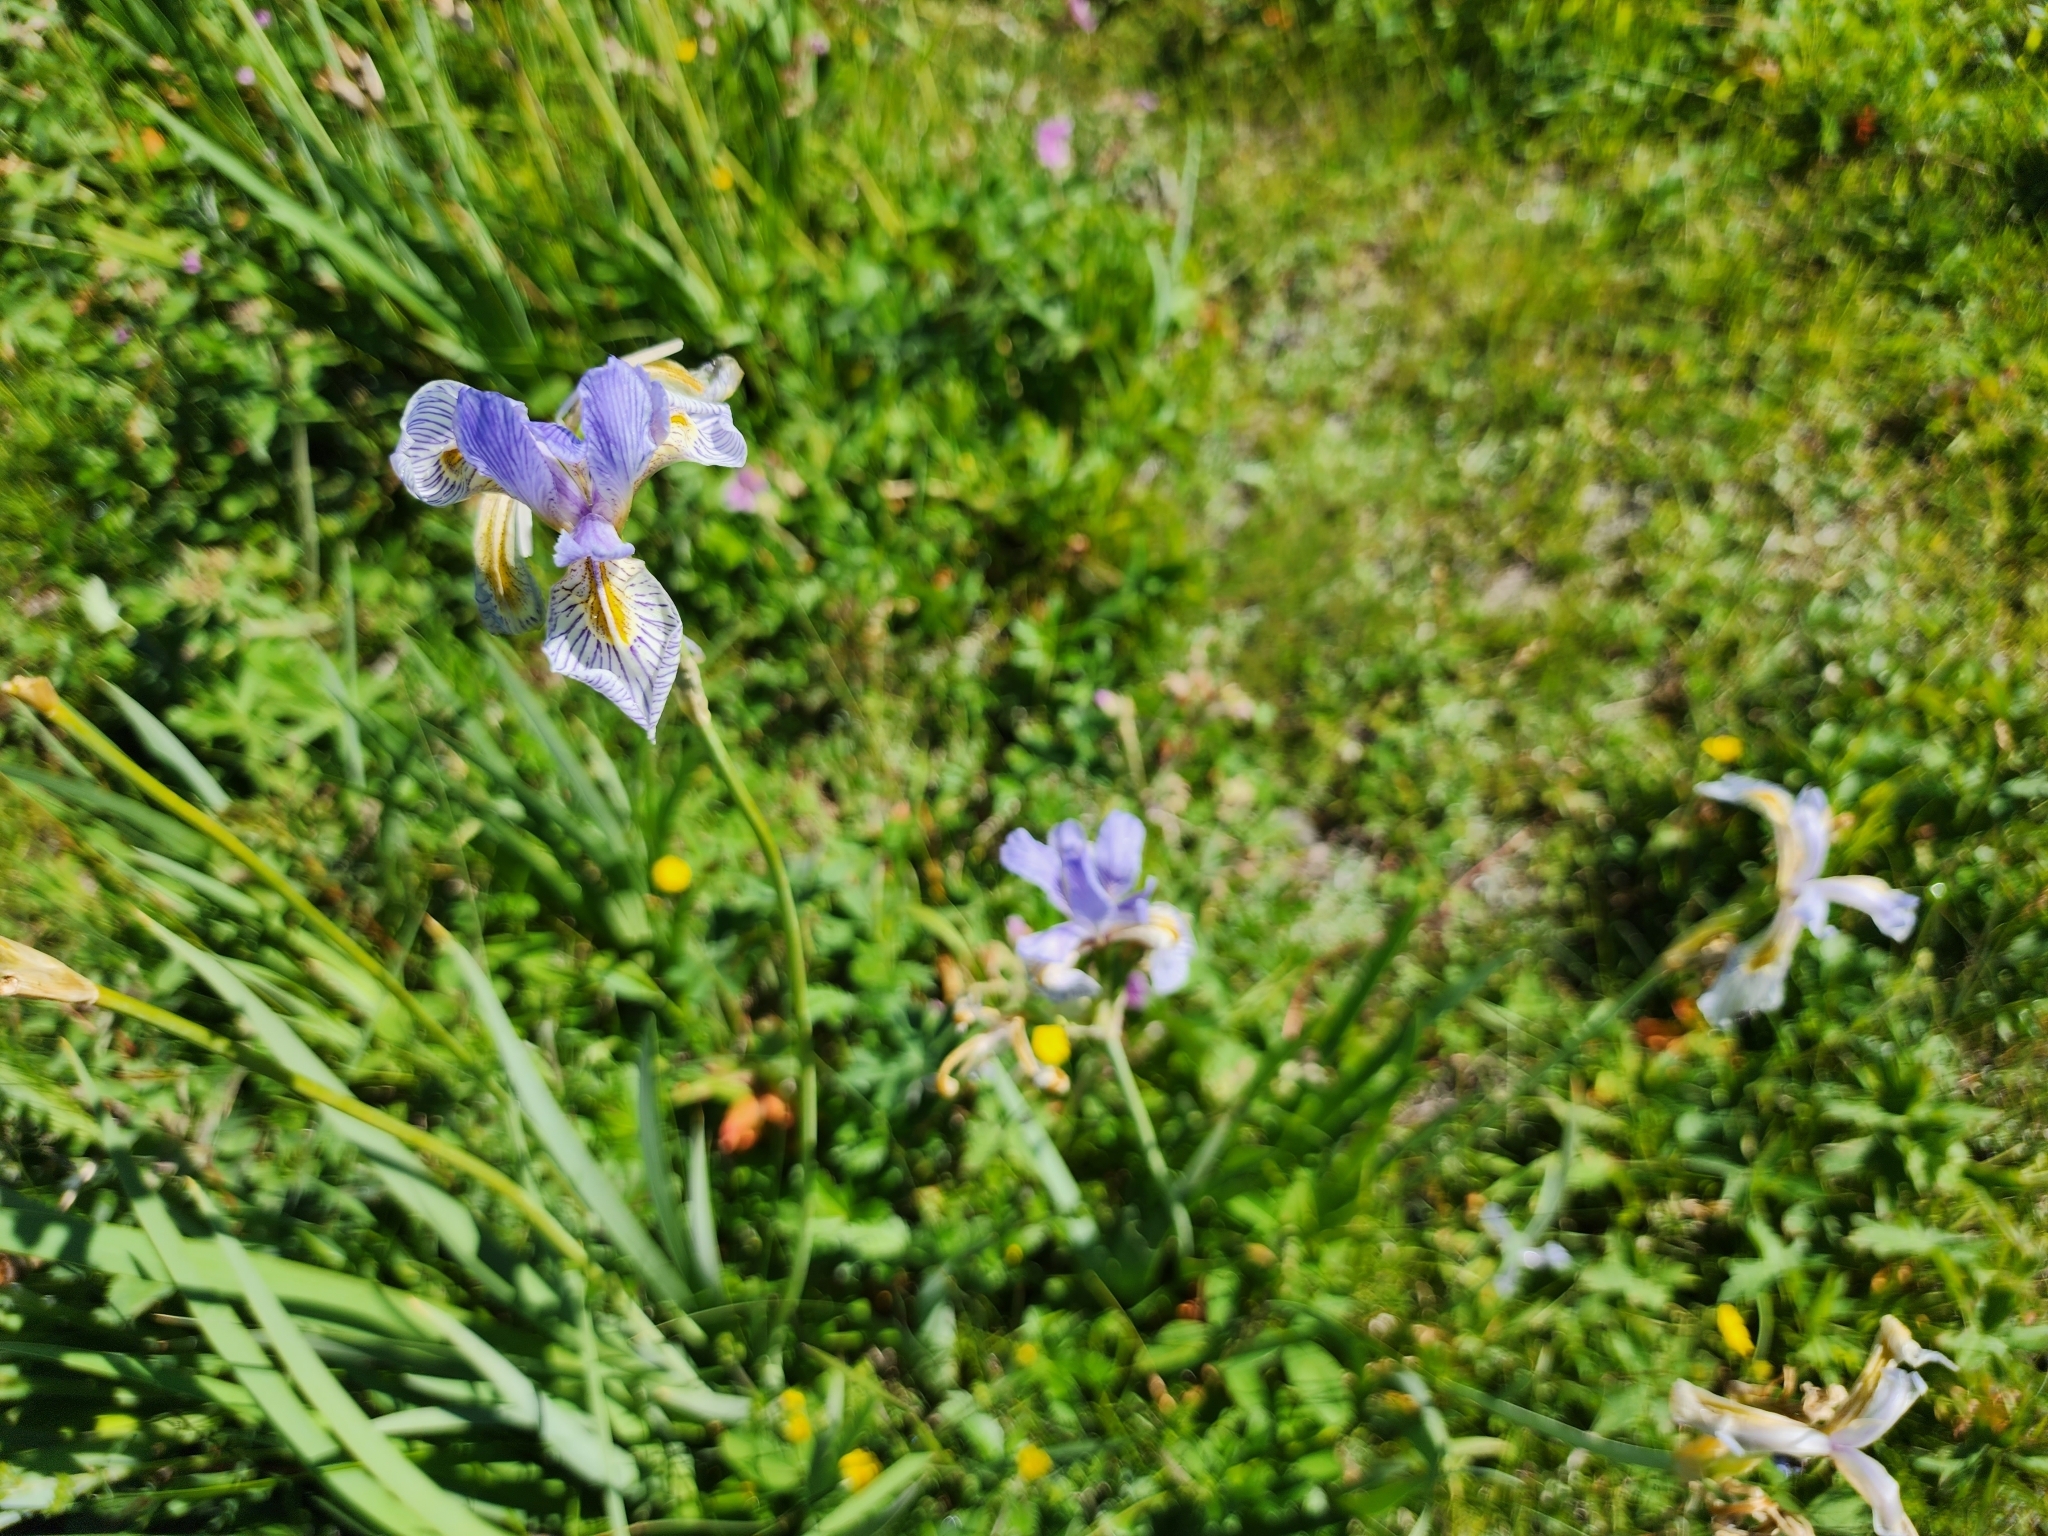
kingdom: Plantae
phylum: Tracheophyta
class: Liliopsida
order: Asparagales
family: Iridaceae
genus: Iris
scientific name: Iris missouriensis
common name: Rocky mountain iris
